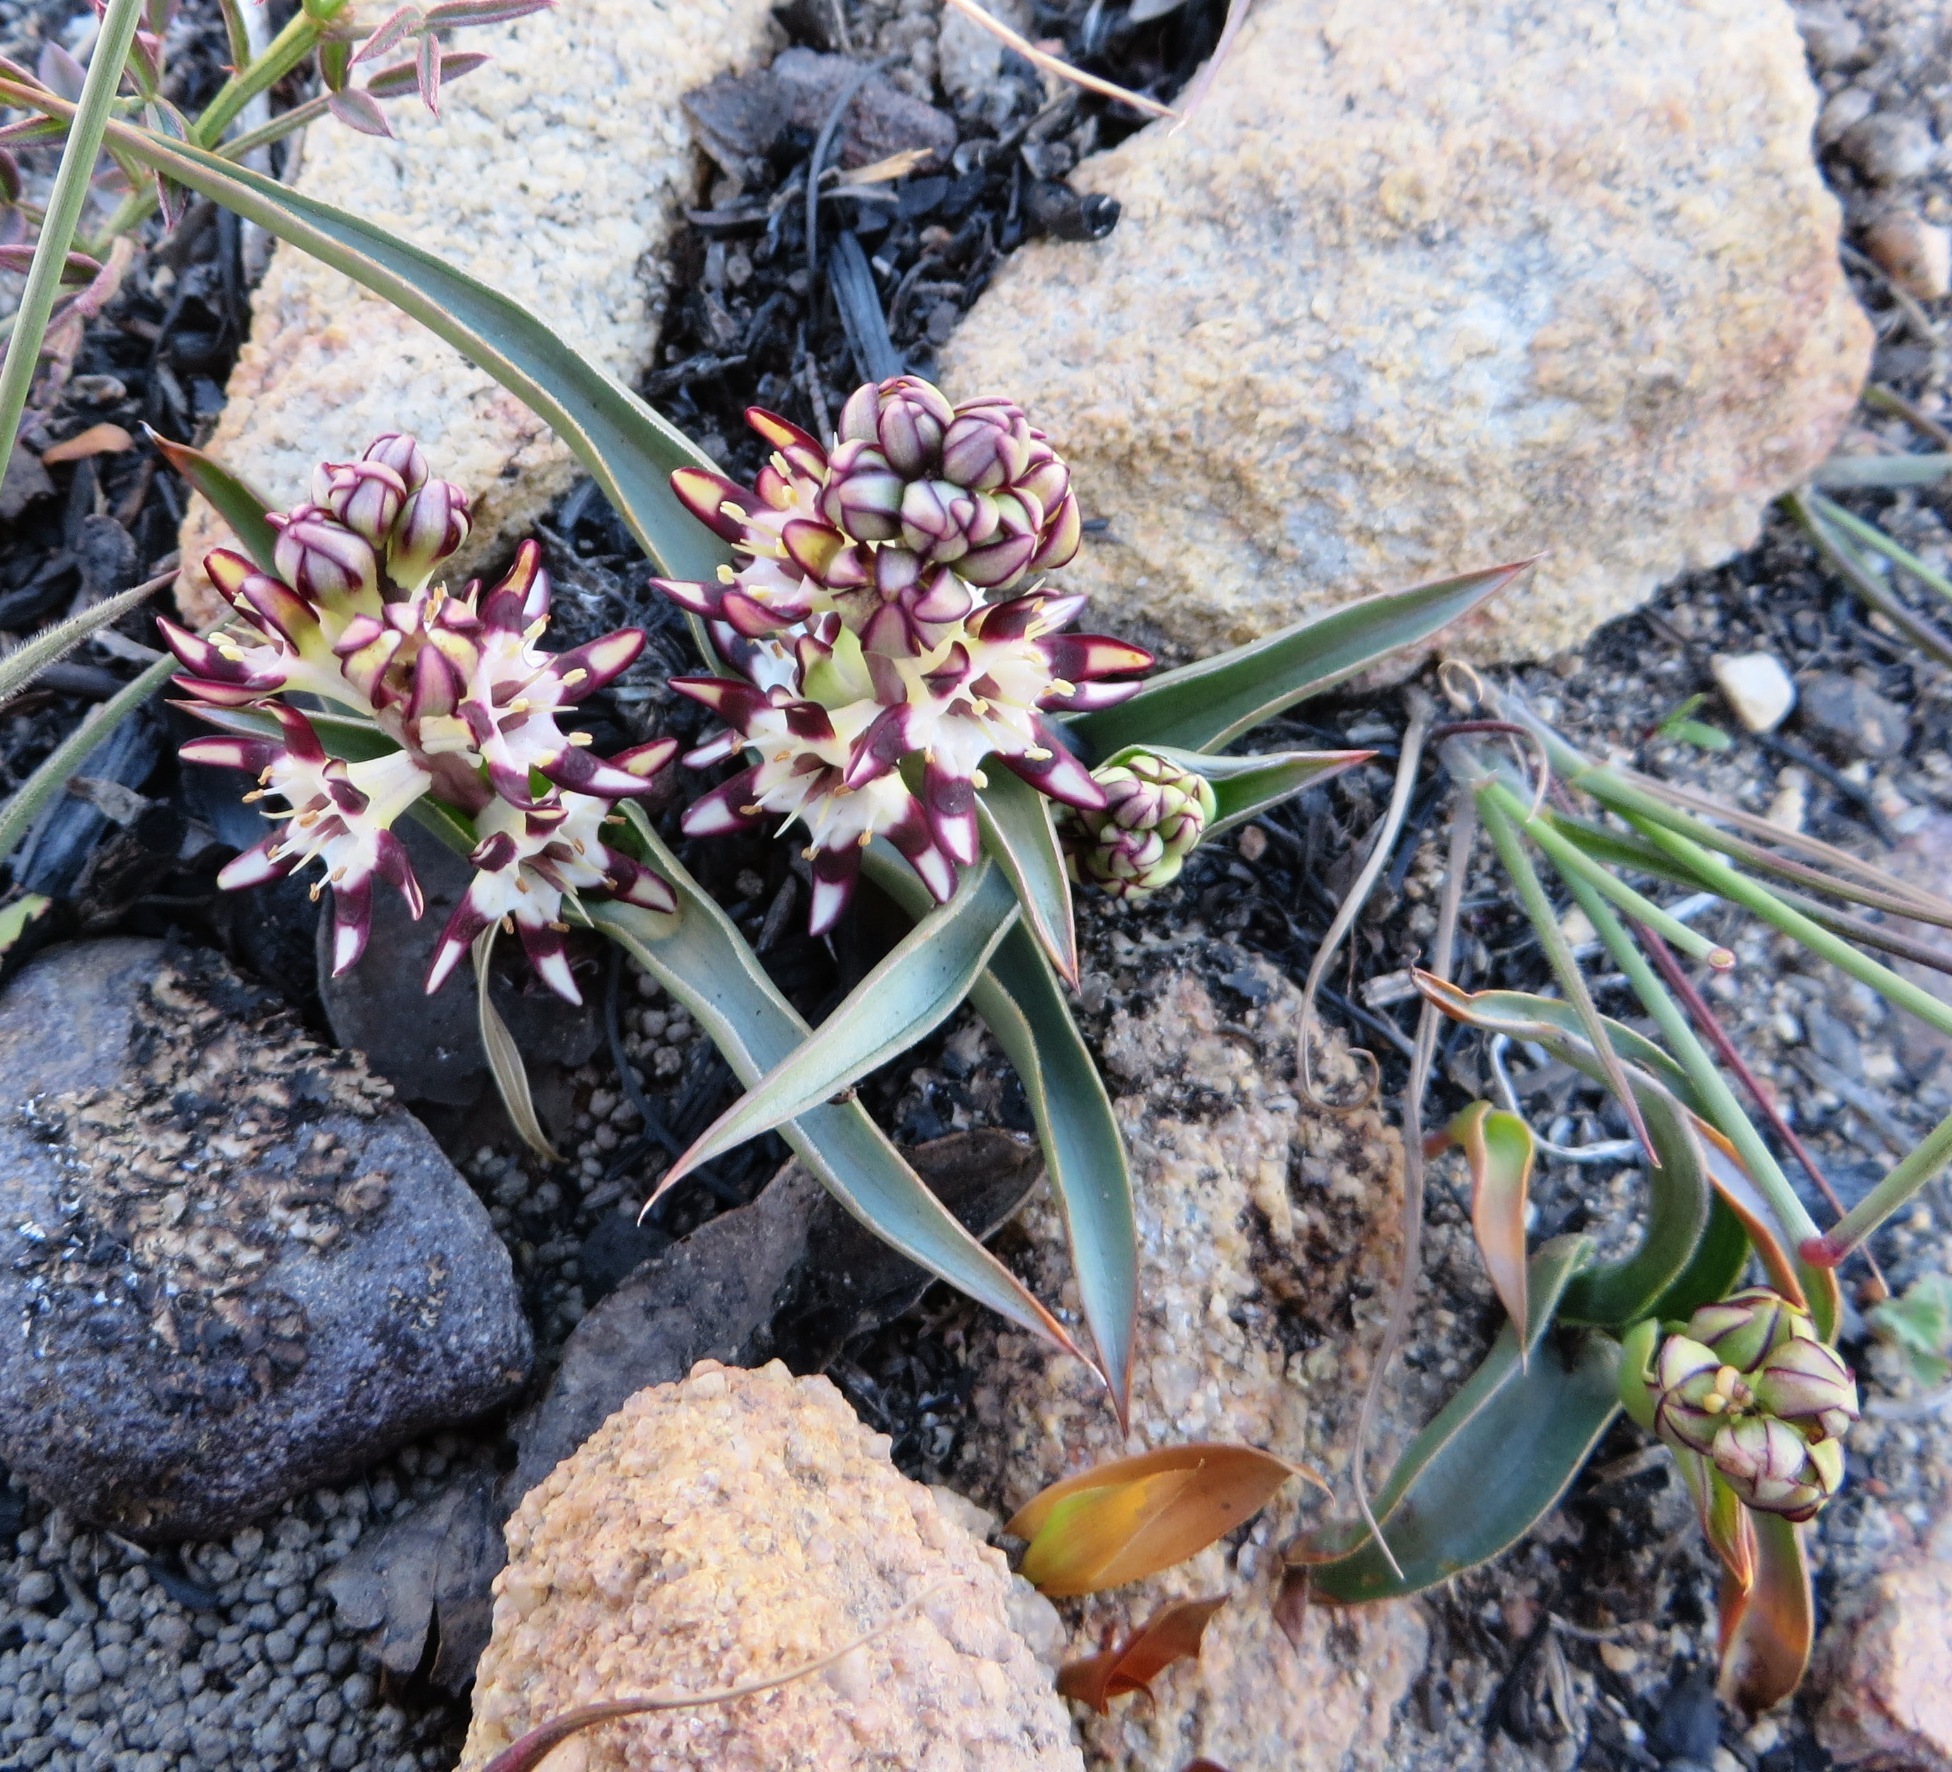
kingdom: Plantae
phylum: Tracheophyta
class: Liliopsida
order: Liliales
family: Colchicaceae
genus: Wurmbea
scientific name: Wurmbea variabilis
